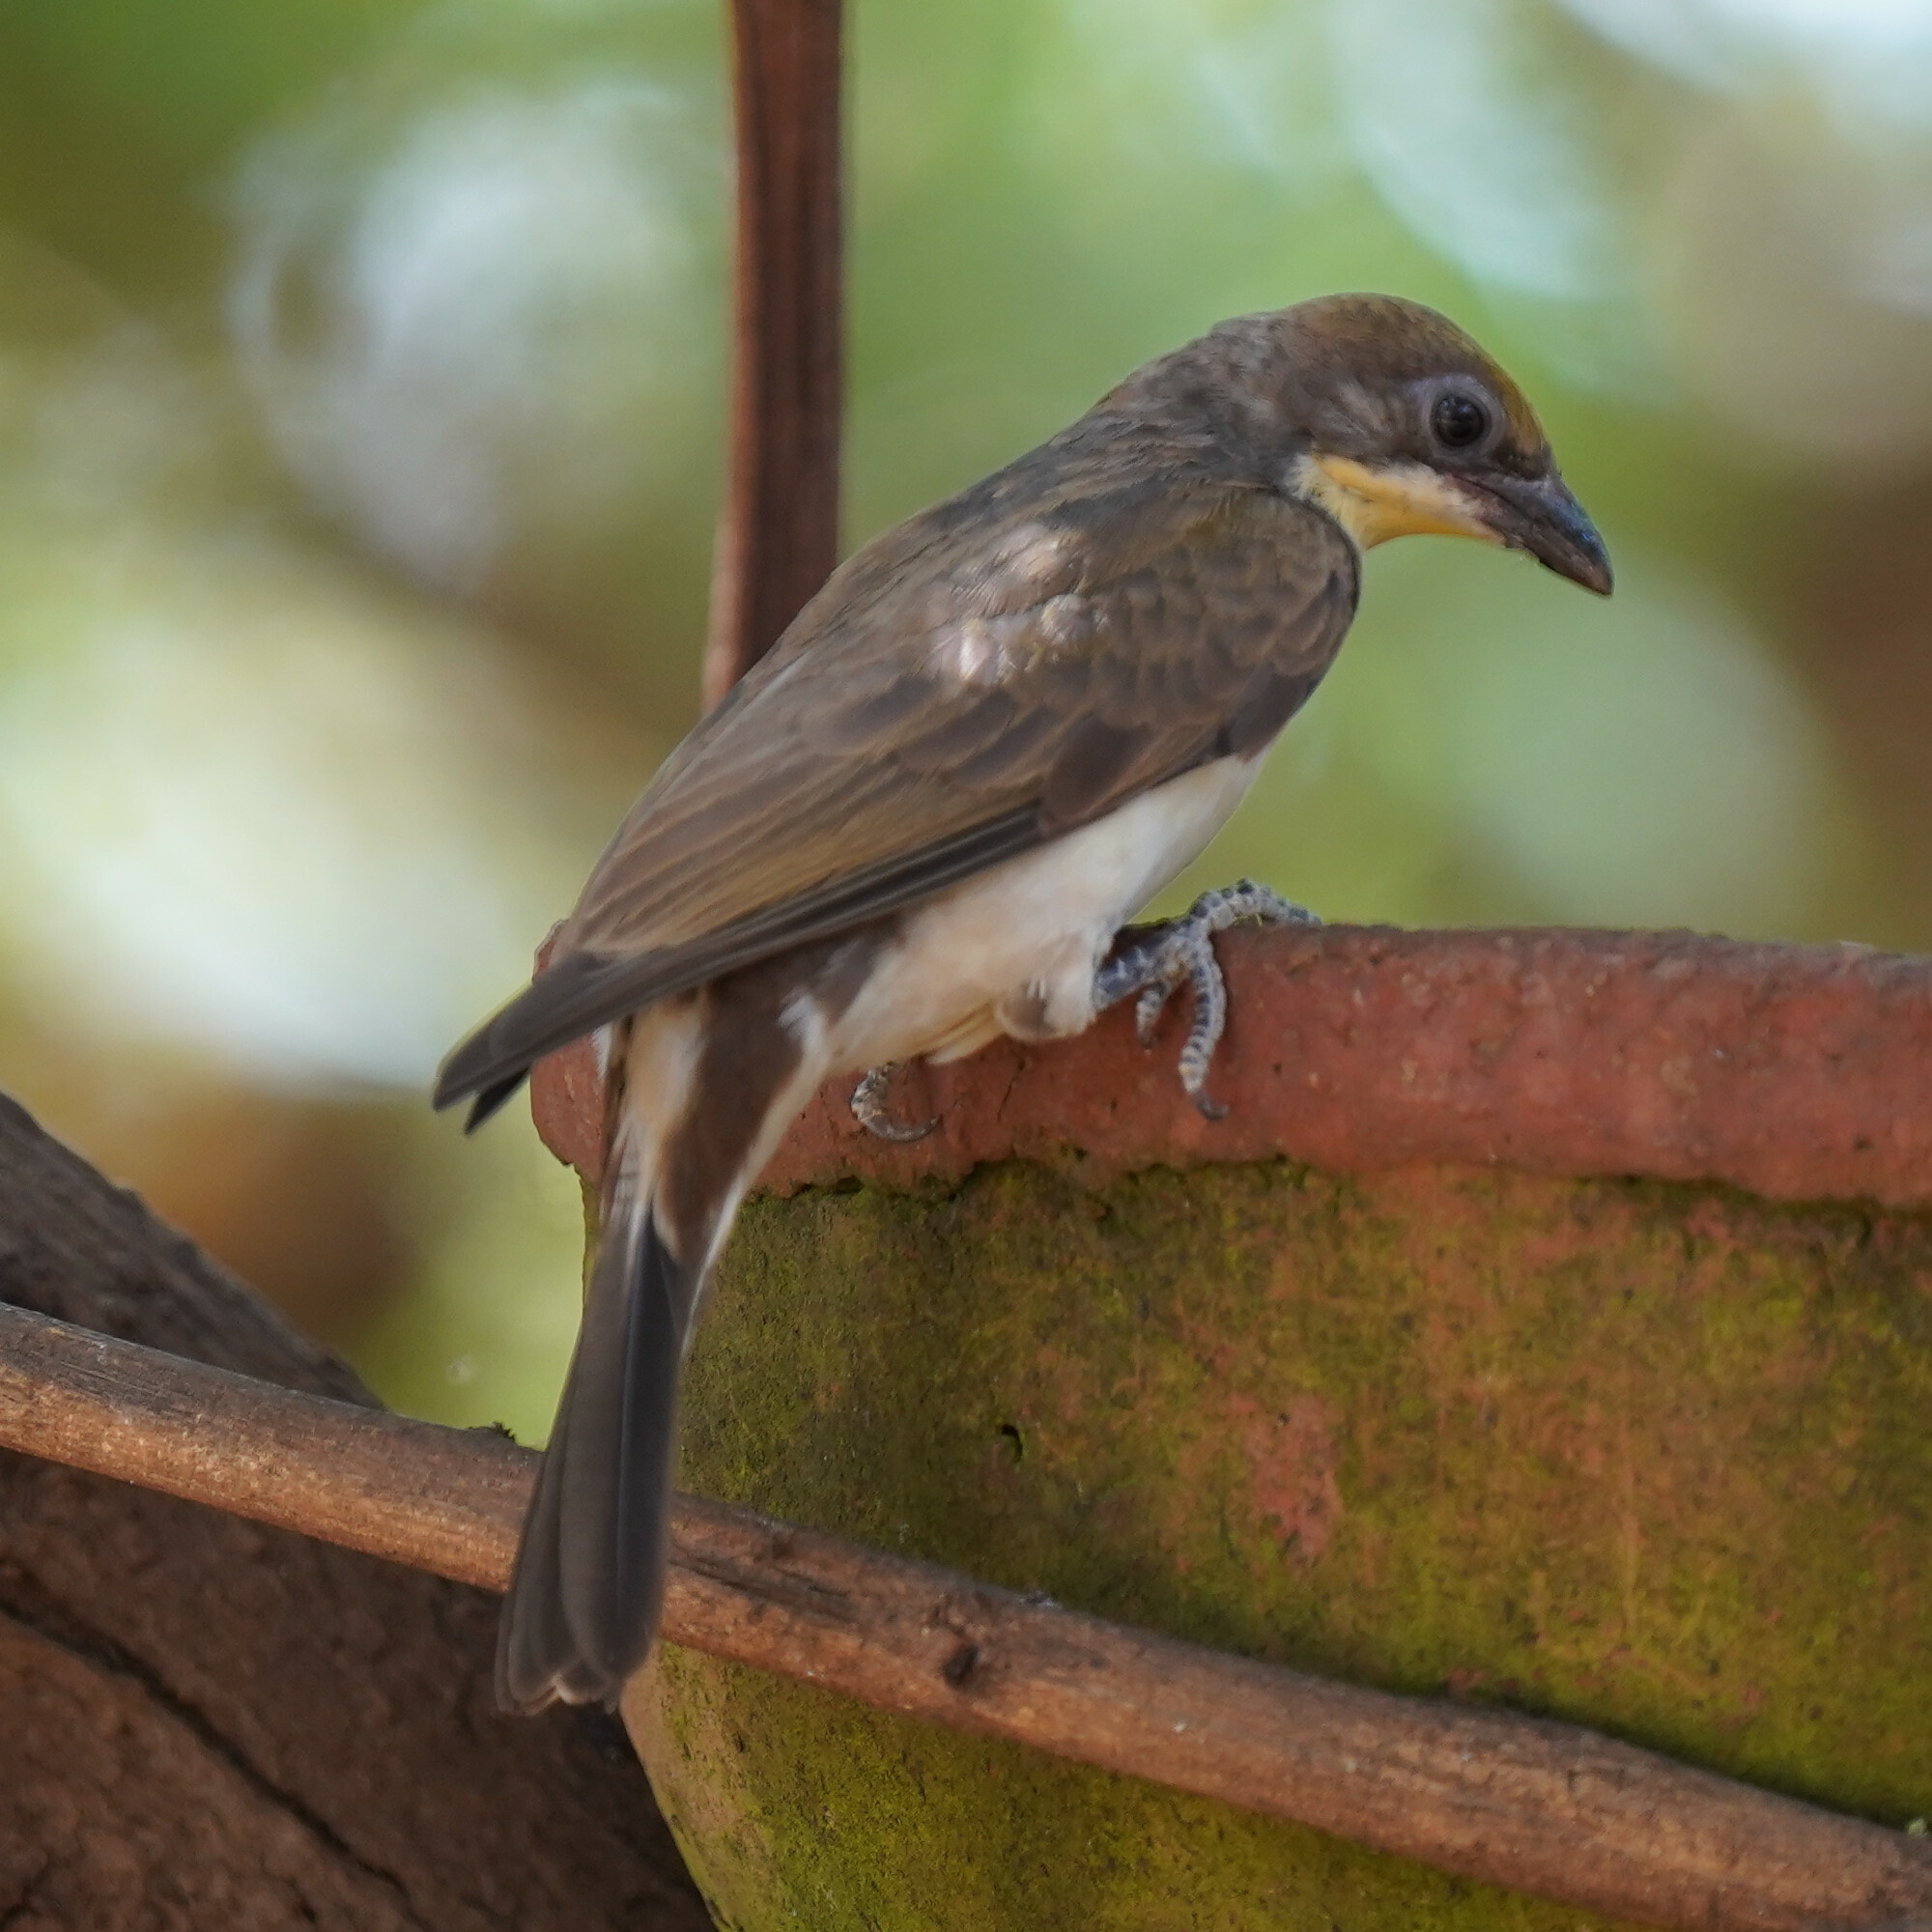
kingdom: Animalia
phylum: Chordata
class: Aves
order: Piciformes
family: Indicatoridae
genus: Indicator
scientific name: Indicator indicator
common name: Greater honeyguide
